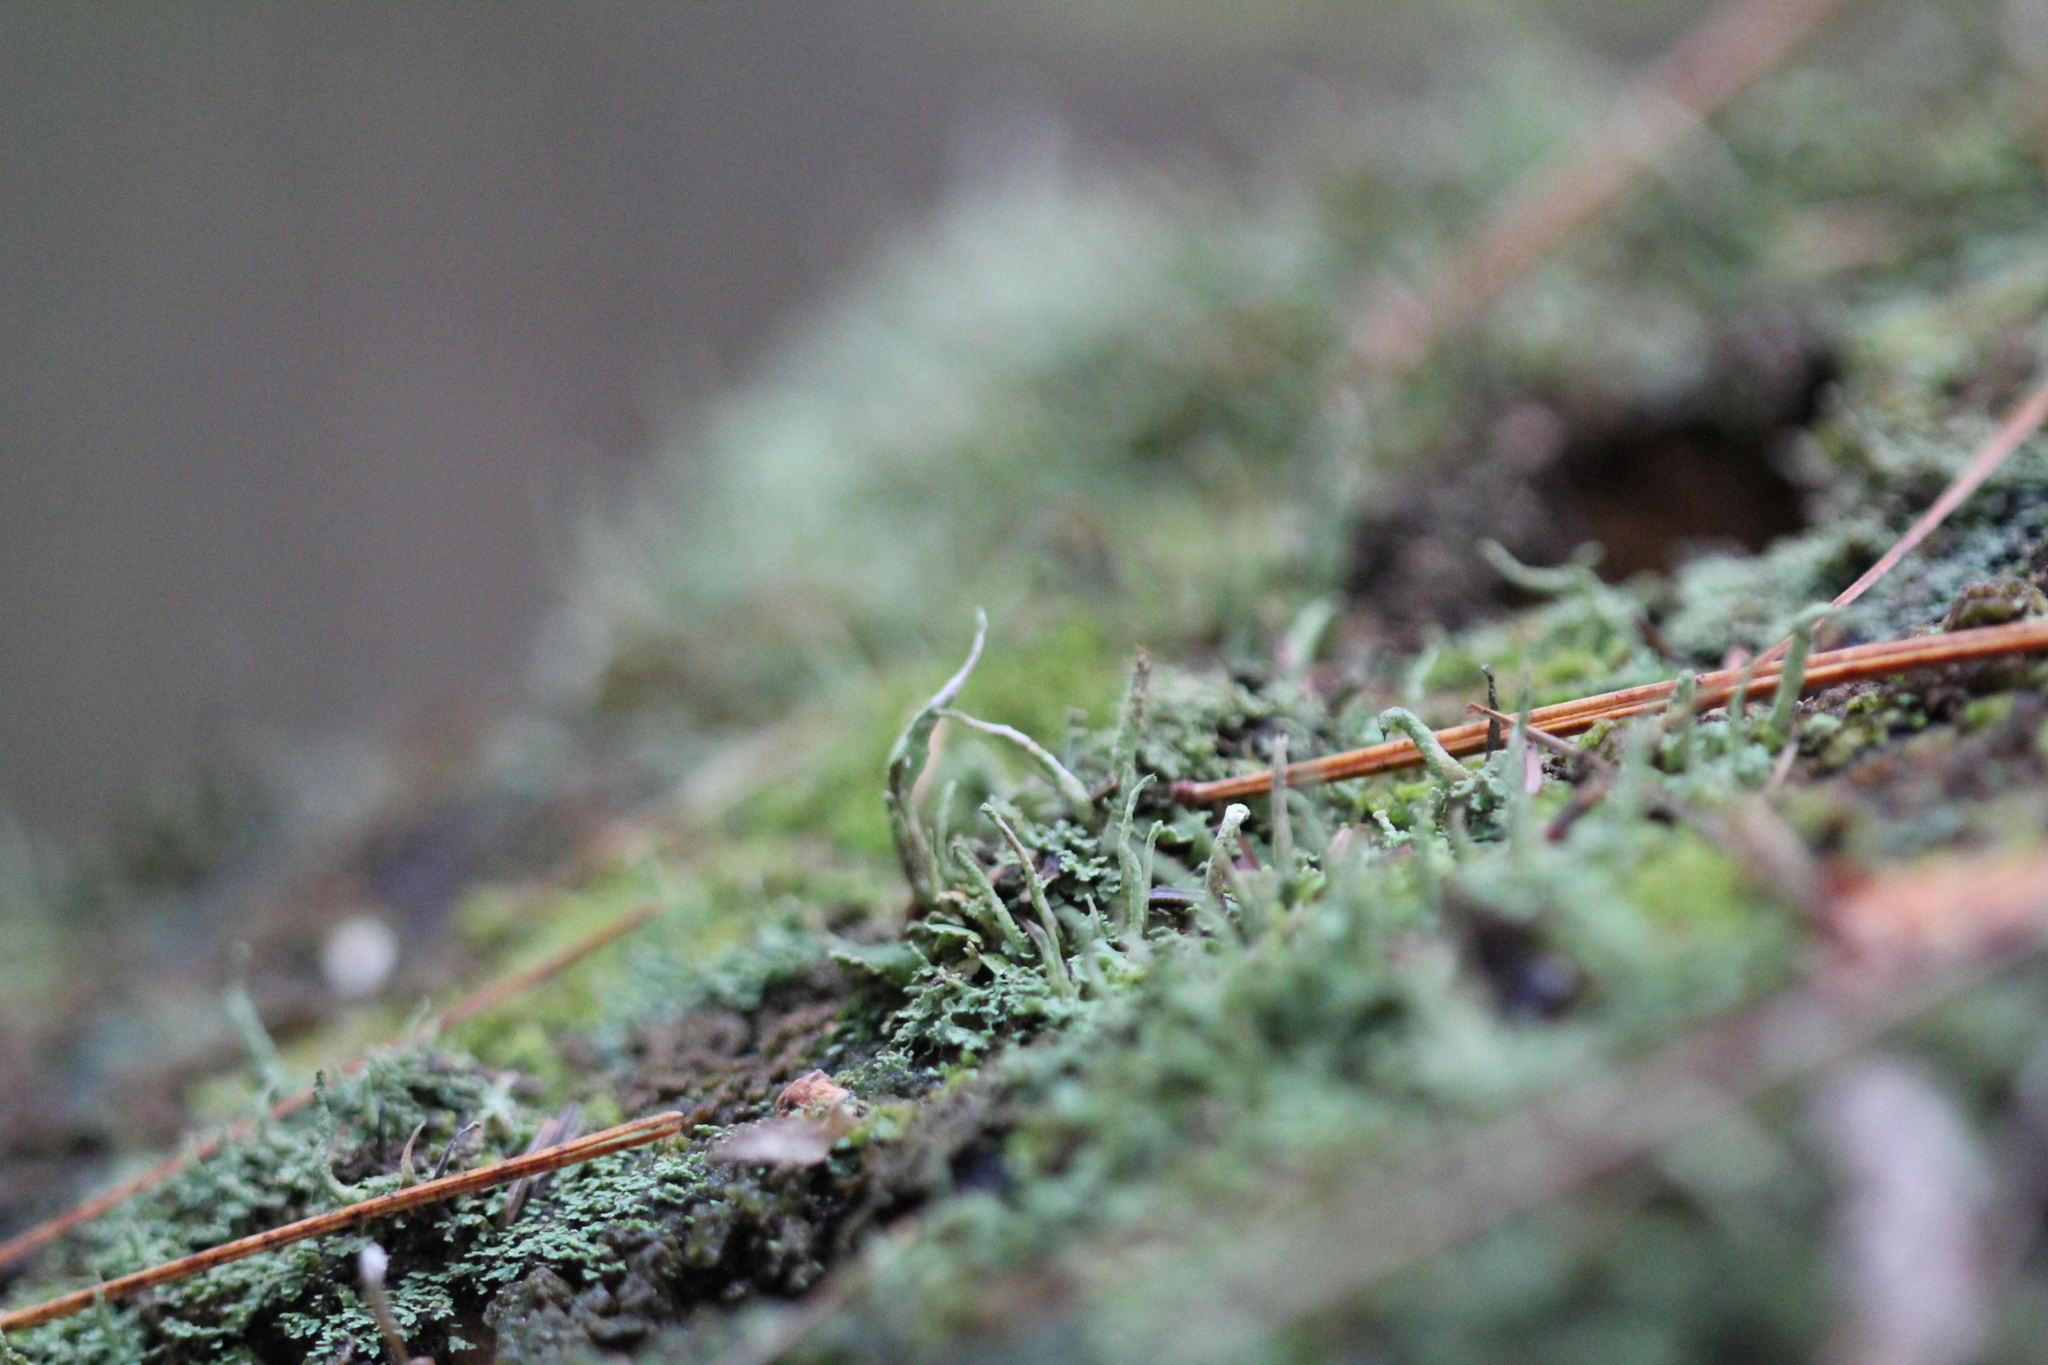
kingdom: Fungi
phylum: Ascomycota
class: Lecanoromycetes
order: Lecanorales
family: Cladoniaceae
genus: Cladonia
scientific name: Cladonia coniocraea
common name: Common powderhorn
